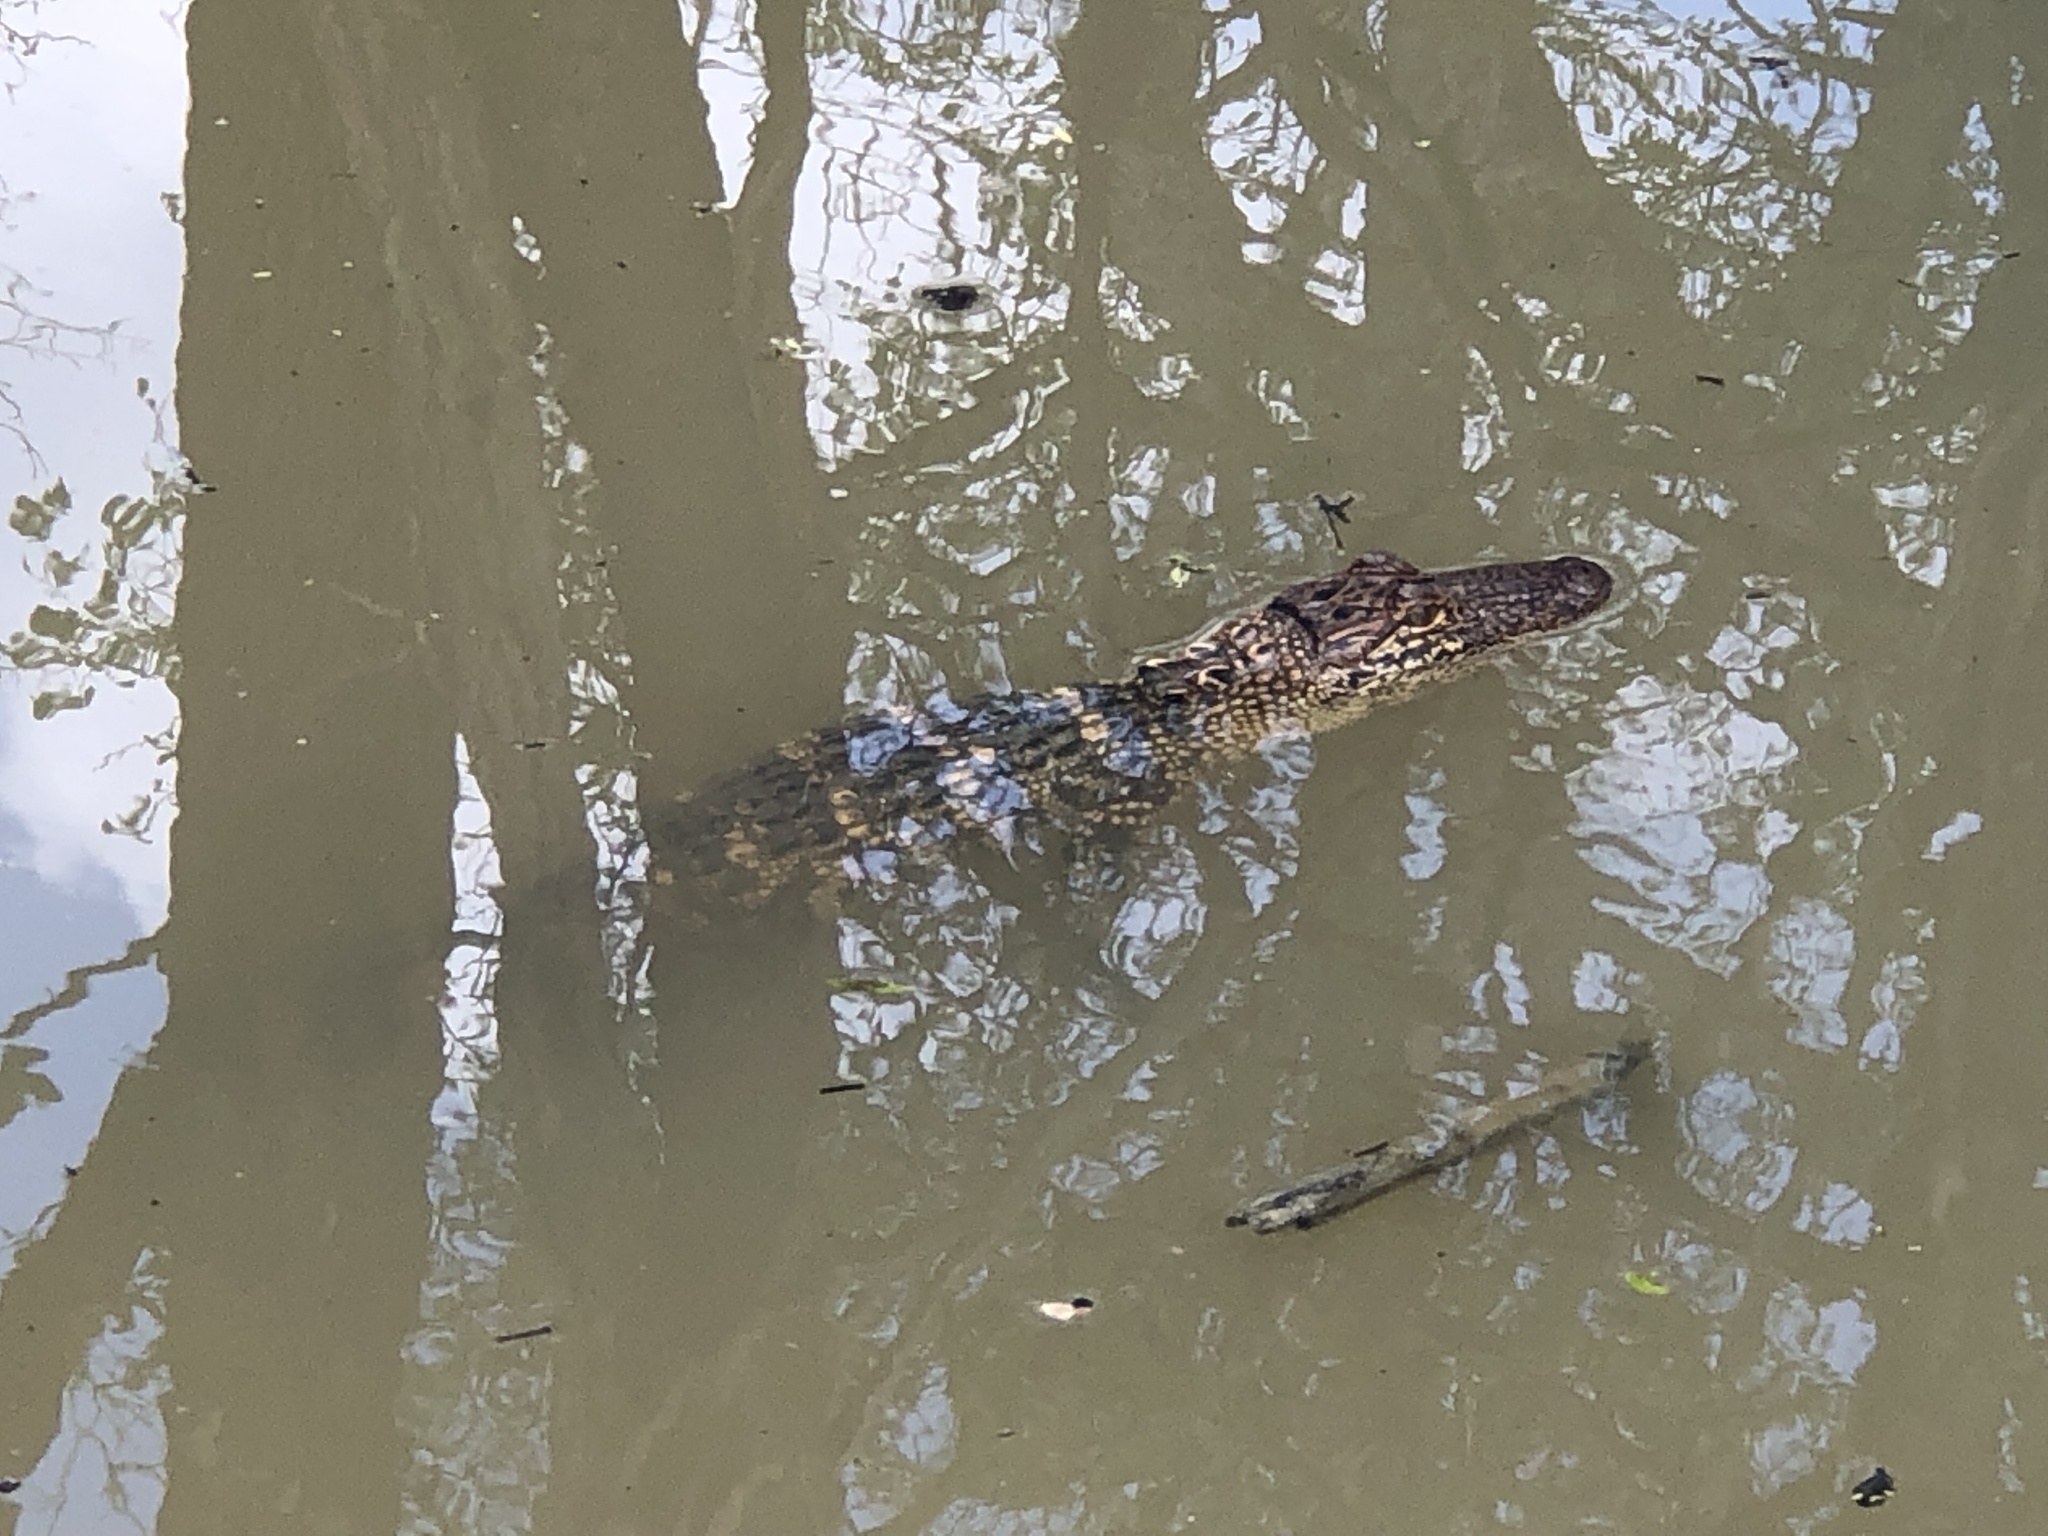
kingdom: Animalia
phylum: Chordata
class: Crocodylia
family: Alligatoridae
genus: Alligator
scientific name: Alligator mississippiensis
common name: American alligator
